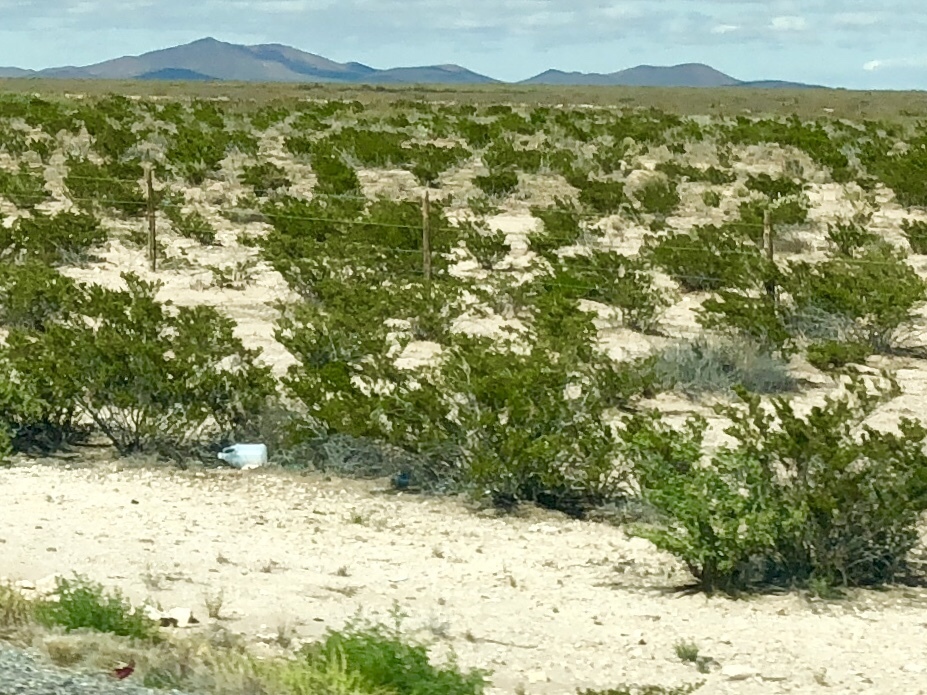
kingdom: Plantae
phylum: Tracheophyta
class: Magnoliopsida
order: Zygophyllales
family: Zygophyllaceae
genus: Larrea
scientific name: Larrea tridentata
